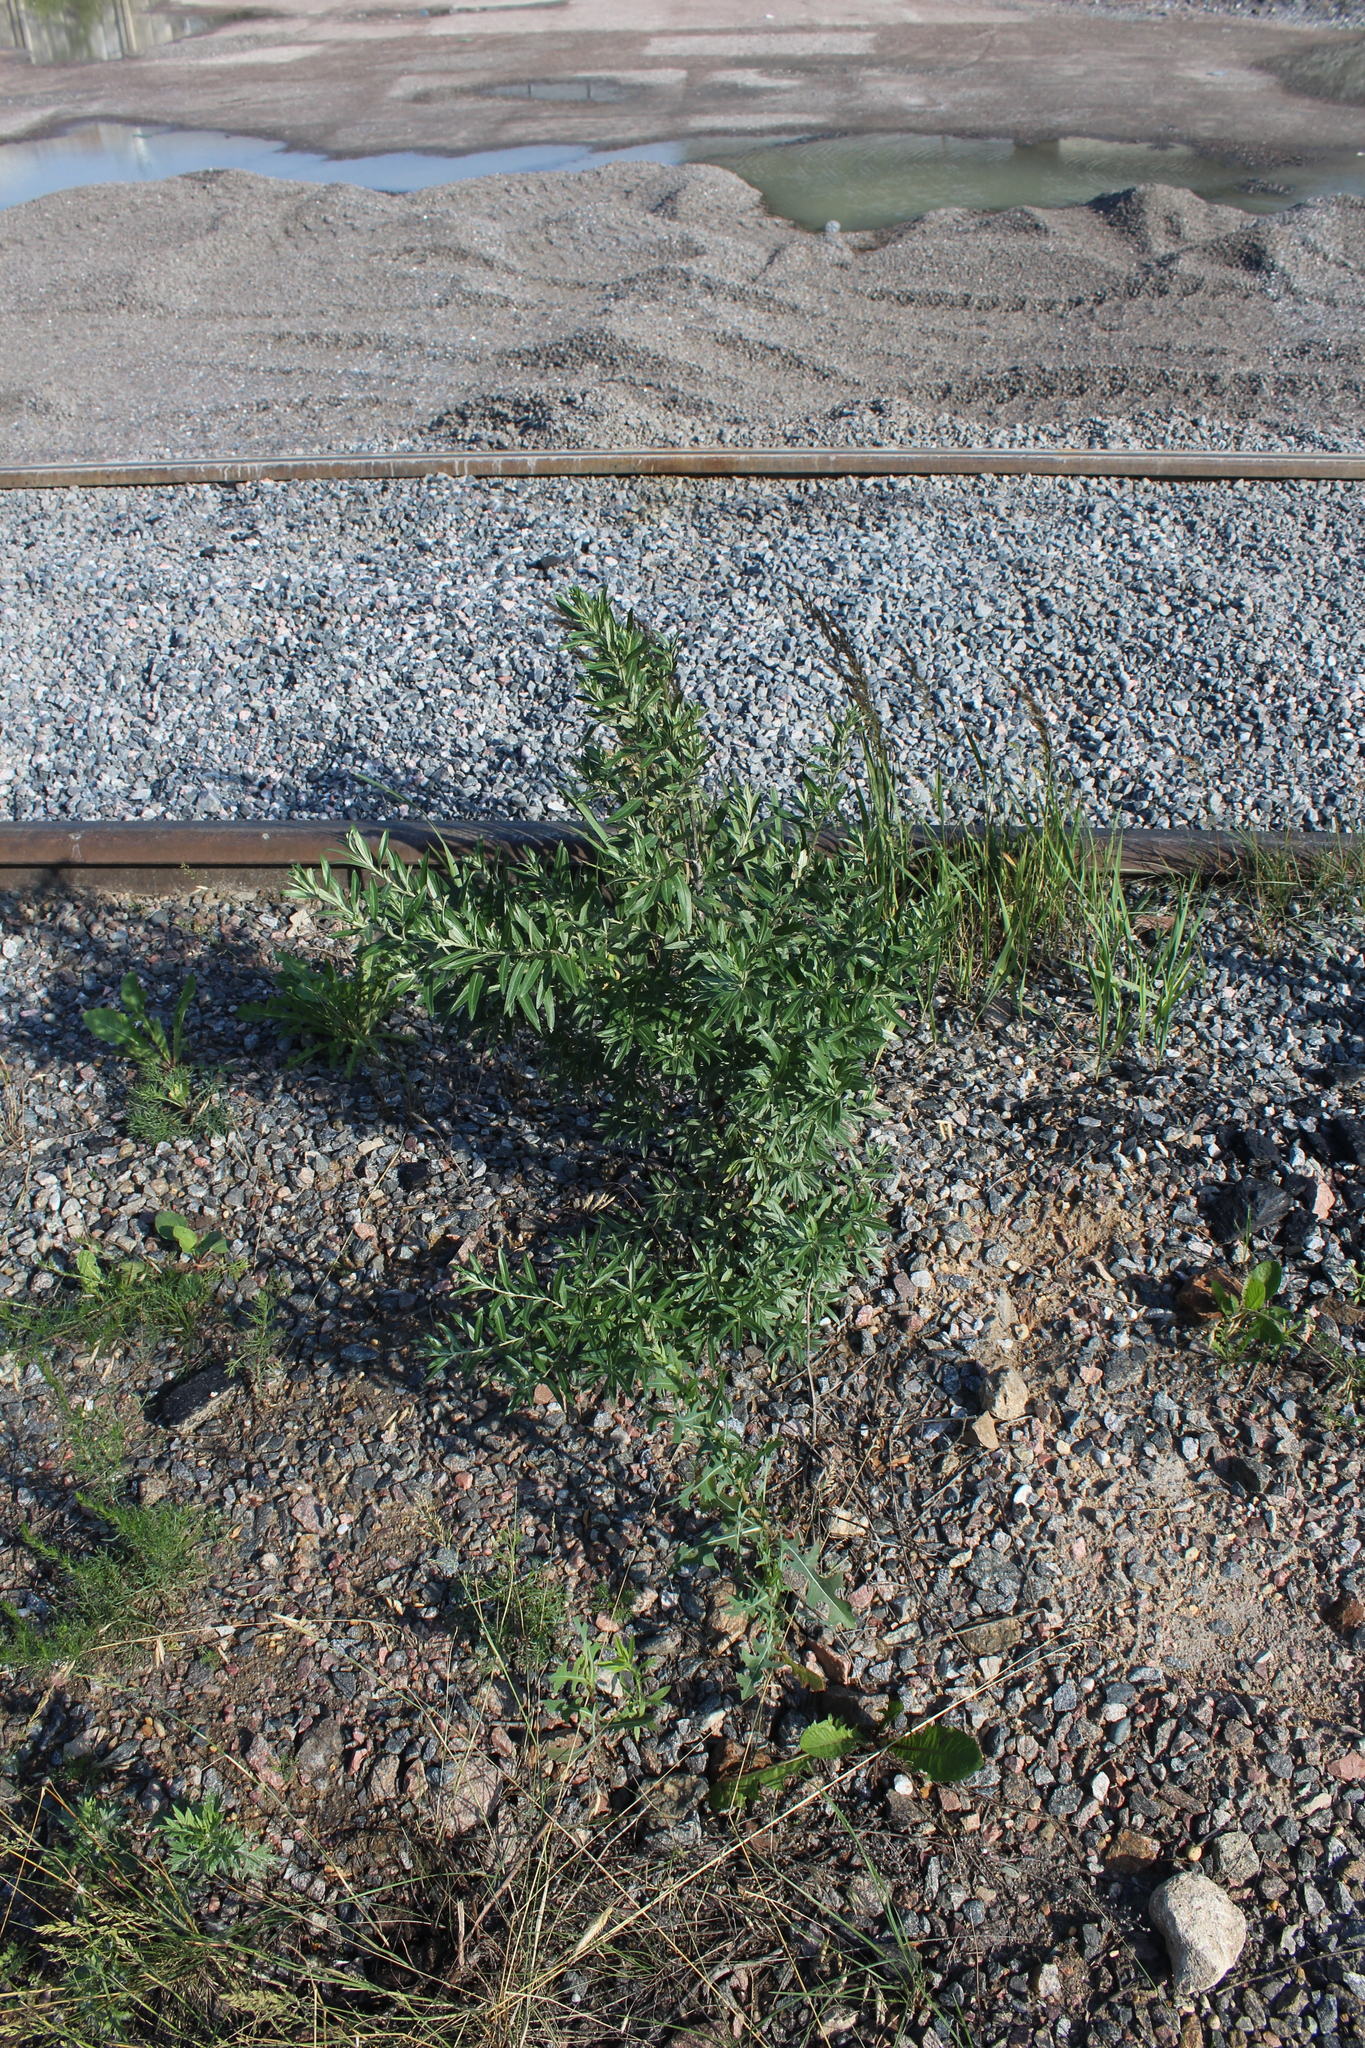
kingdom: Plantae
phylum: Tracheophyta
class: Magnoliopsida
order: Rosales
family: Elaeagnaceae
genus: Hippophae
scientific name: Hippophae rhamnoides
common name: Sea-buckthorn
